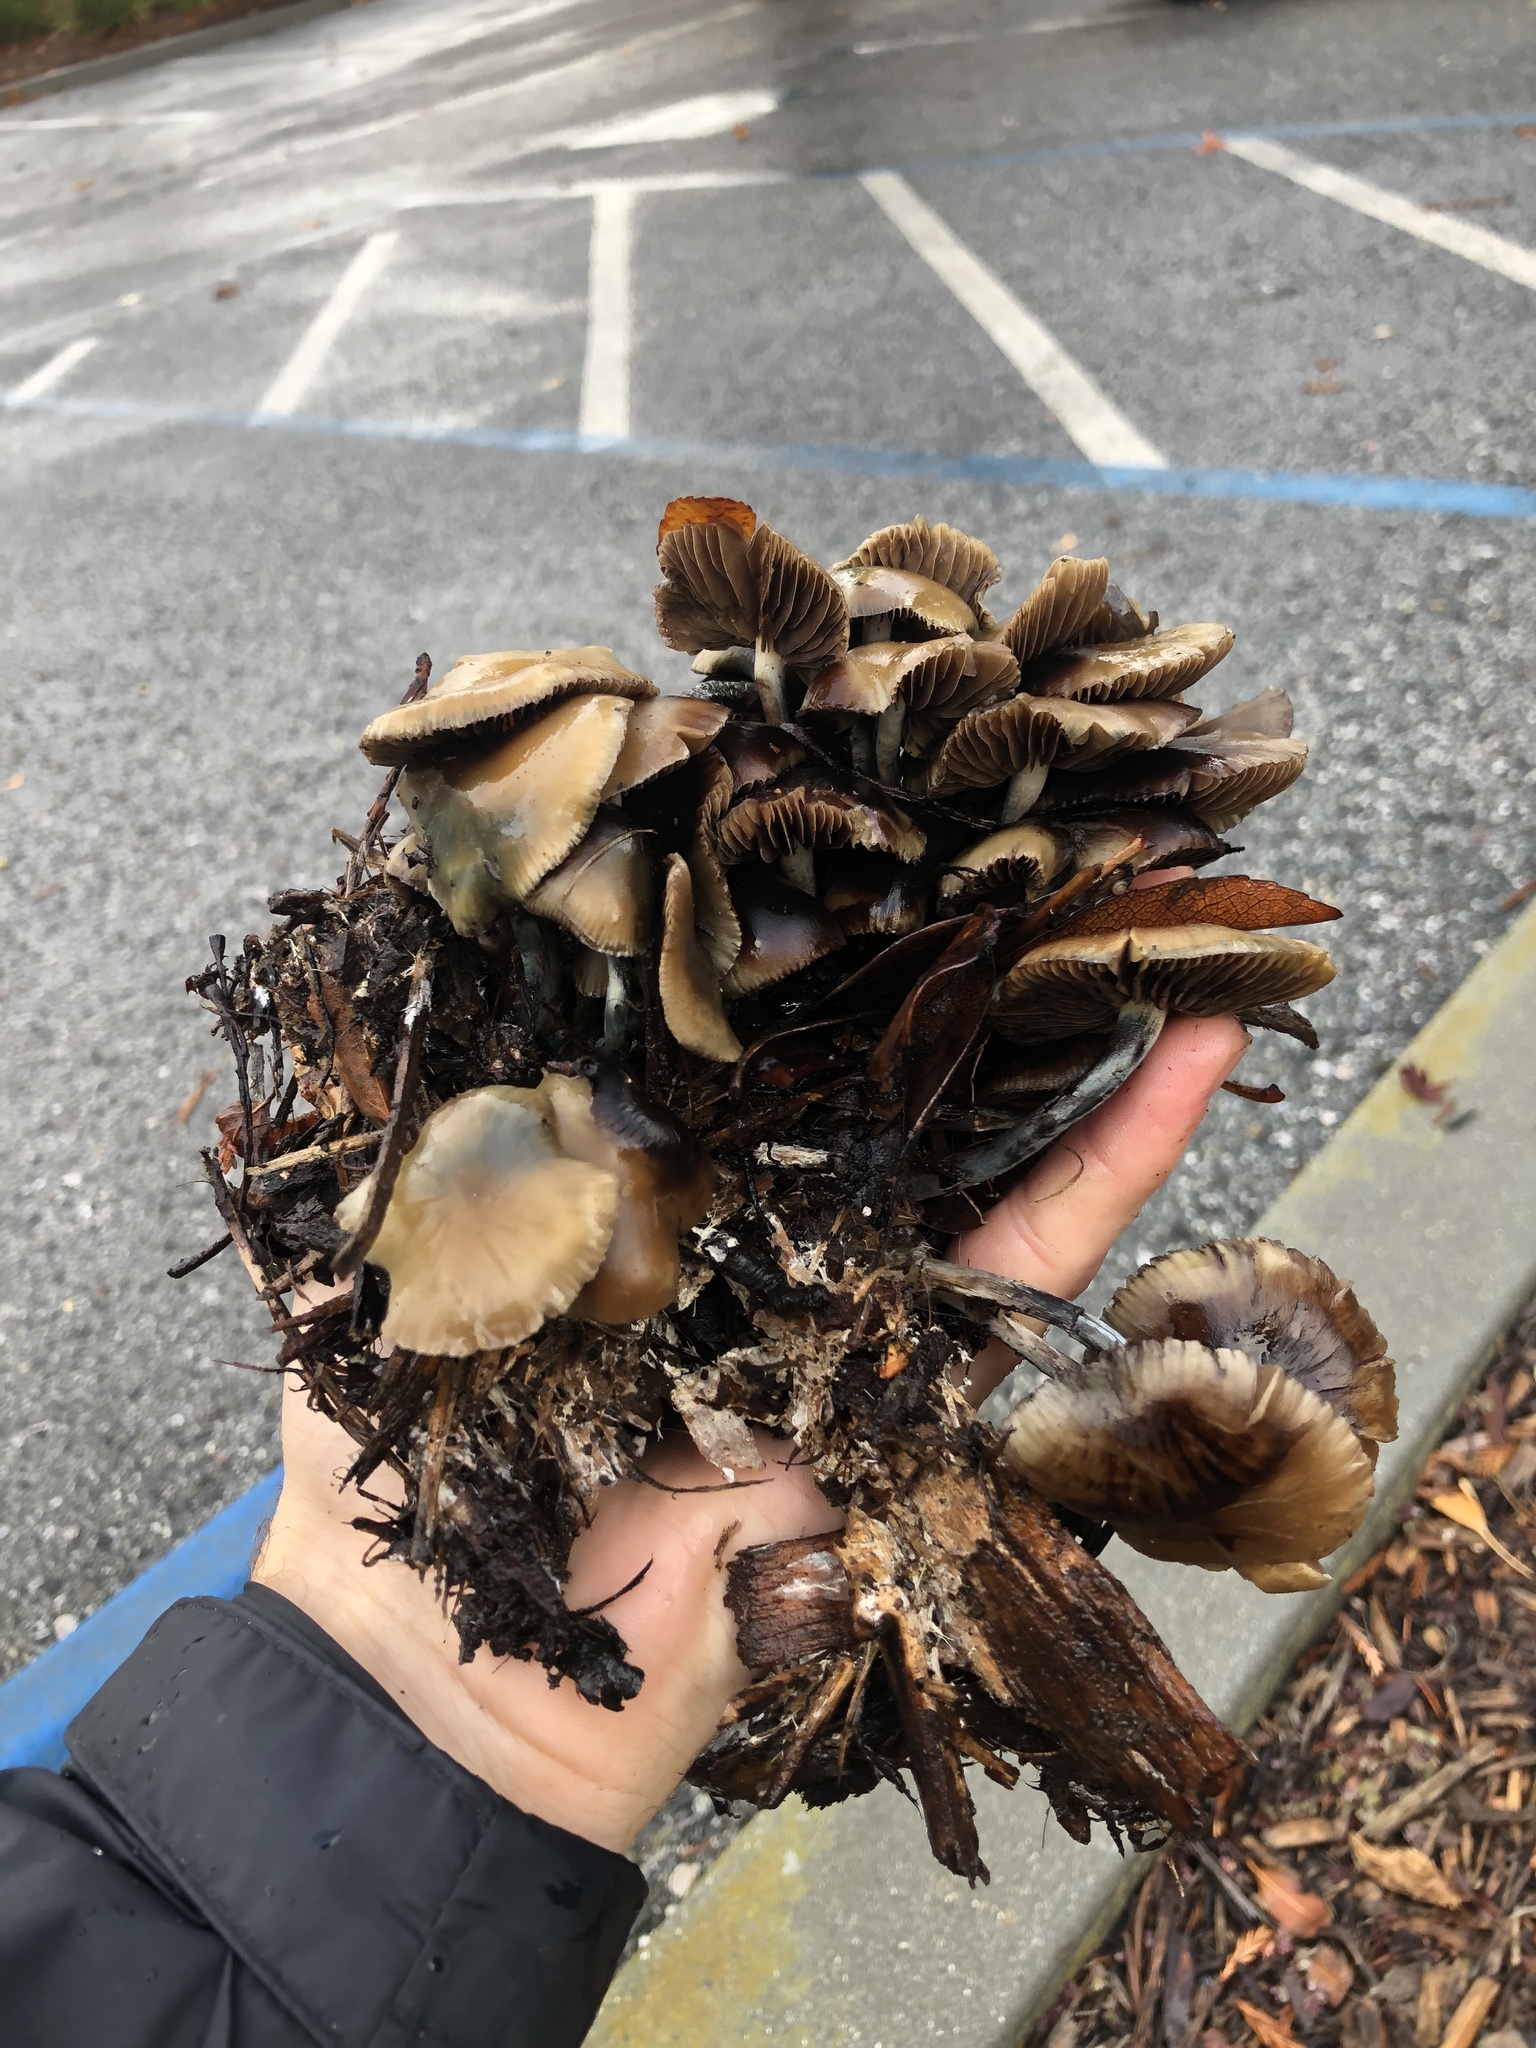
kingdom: Fungi
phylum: Basidiomycota
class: Agaricomycetes
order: Agaricales
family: Hymenogastraceae
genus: Psilocybe
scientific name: Psilocybe allenii
